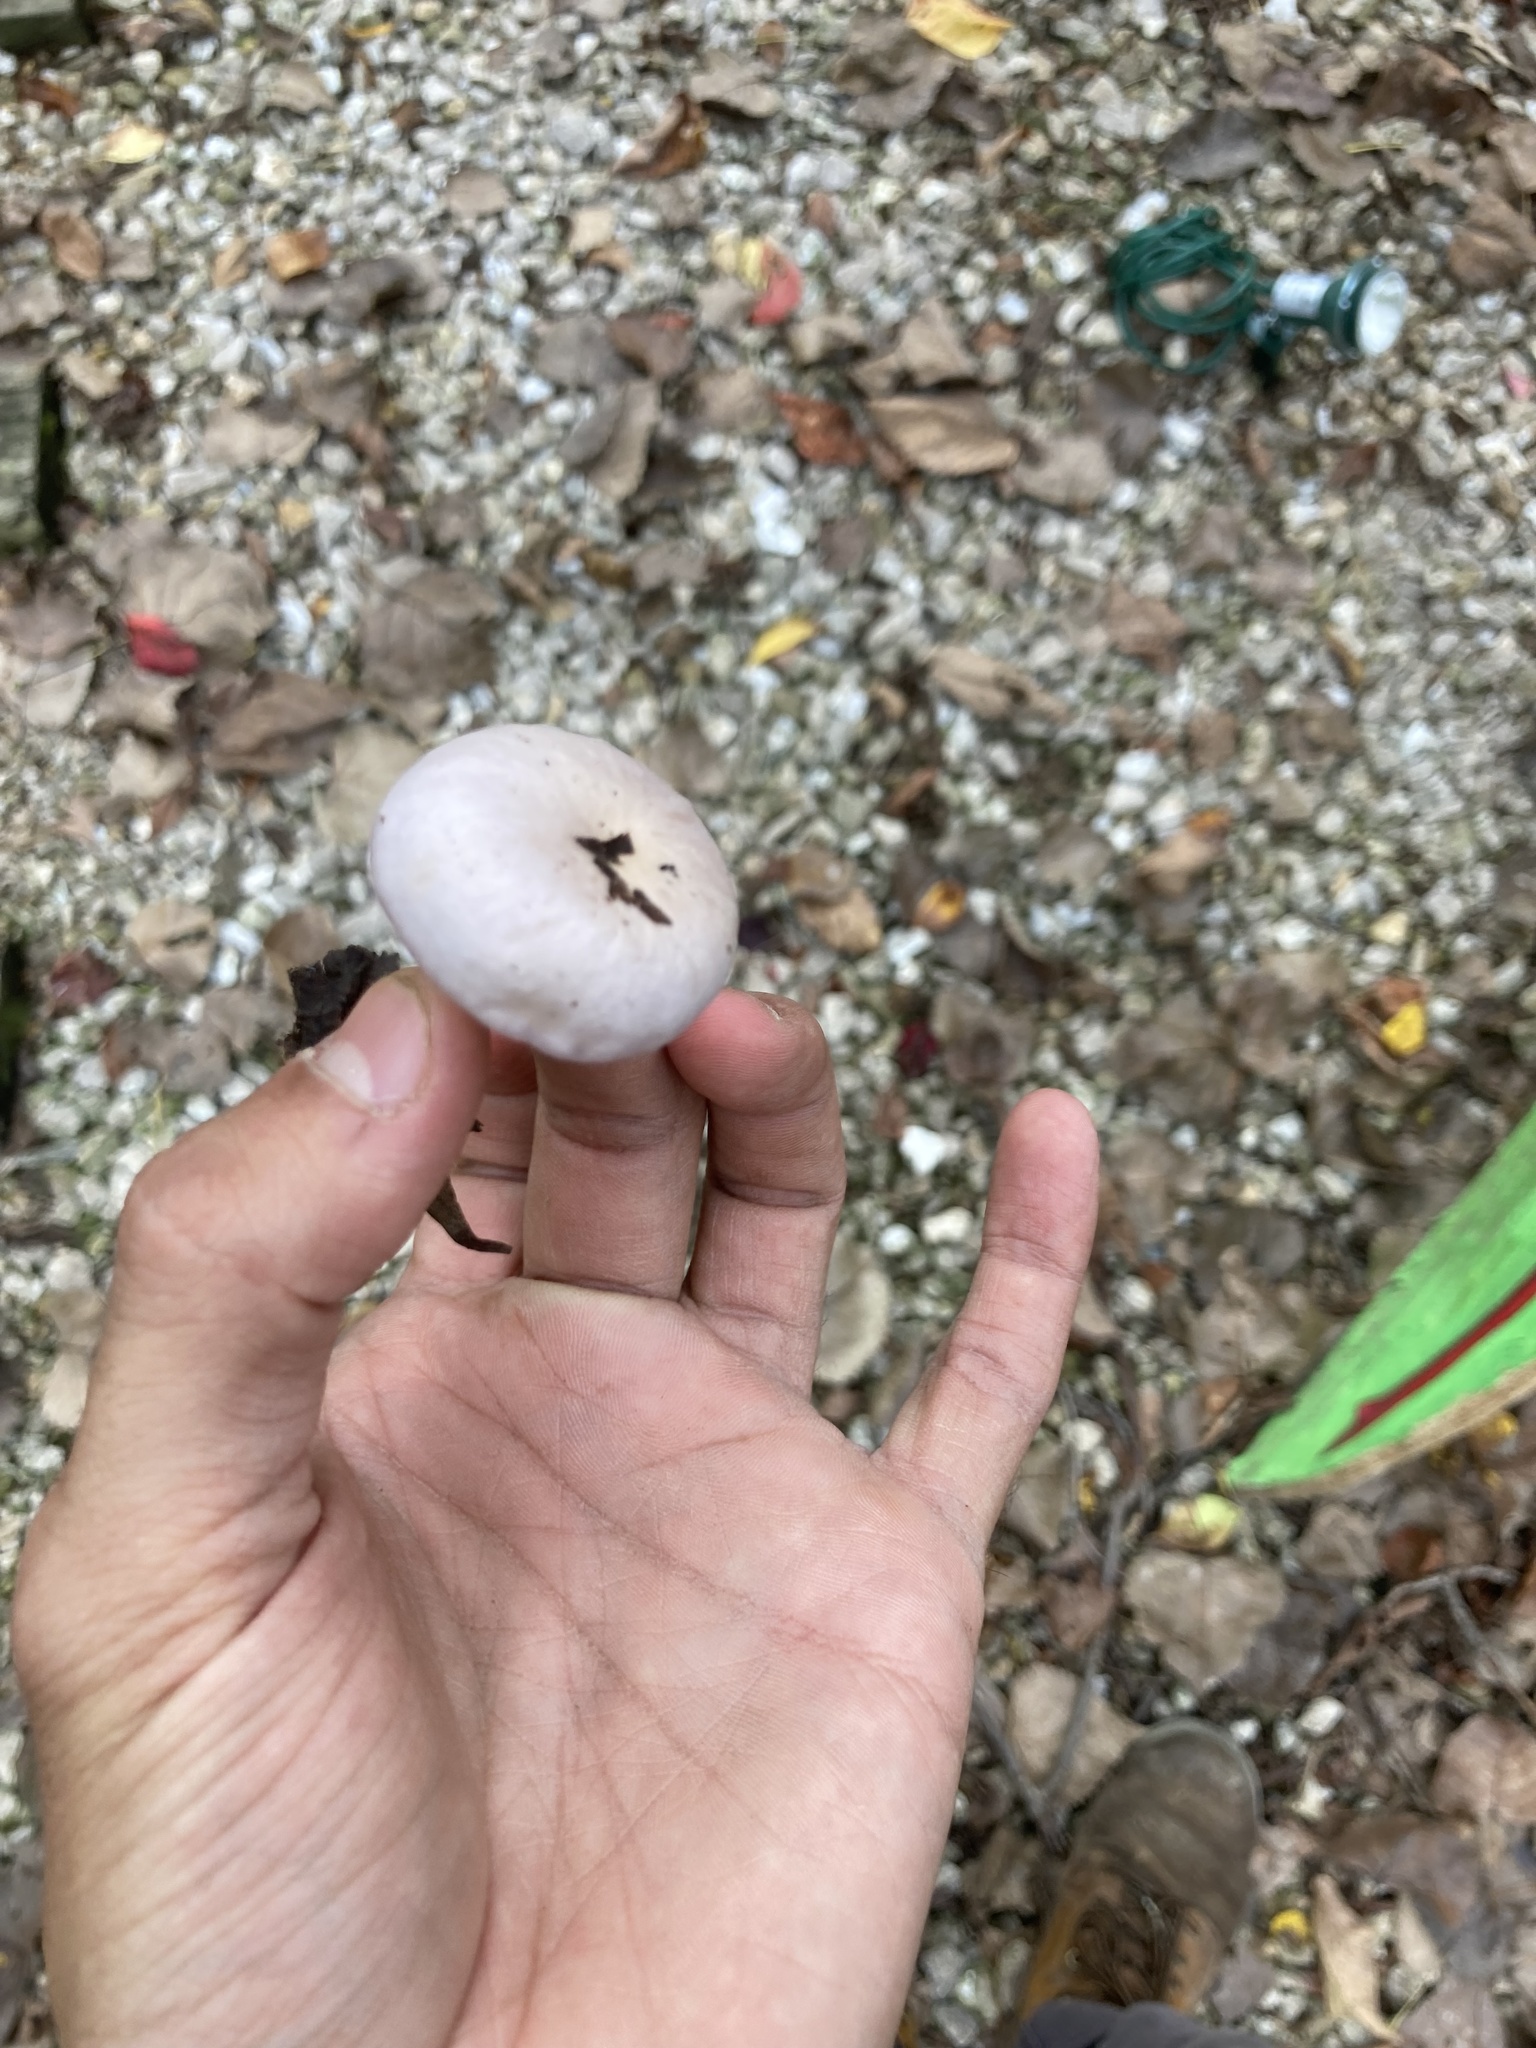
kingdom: Fungi
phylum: Basidiomycota
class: Agaricomycetes
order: Agaricales
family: Hydnangiaceae
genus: Laccaria
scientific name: Laccaria ochropurpurea
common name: Purple laccaria
